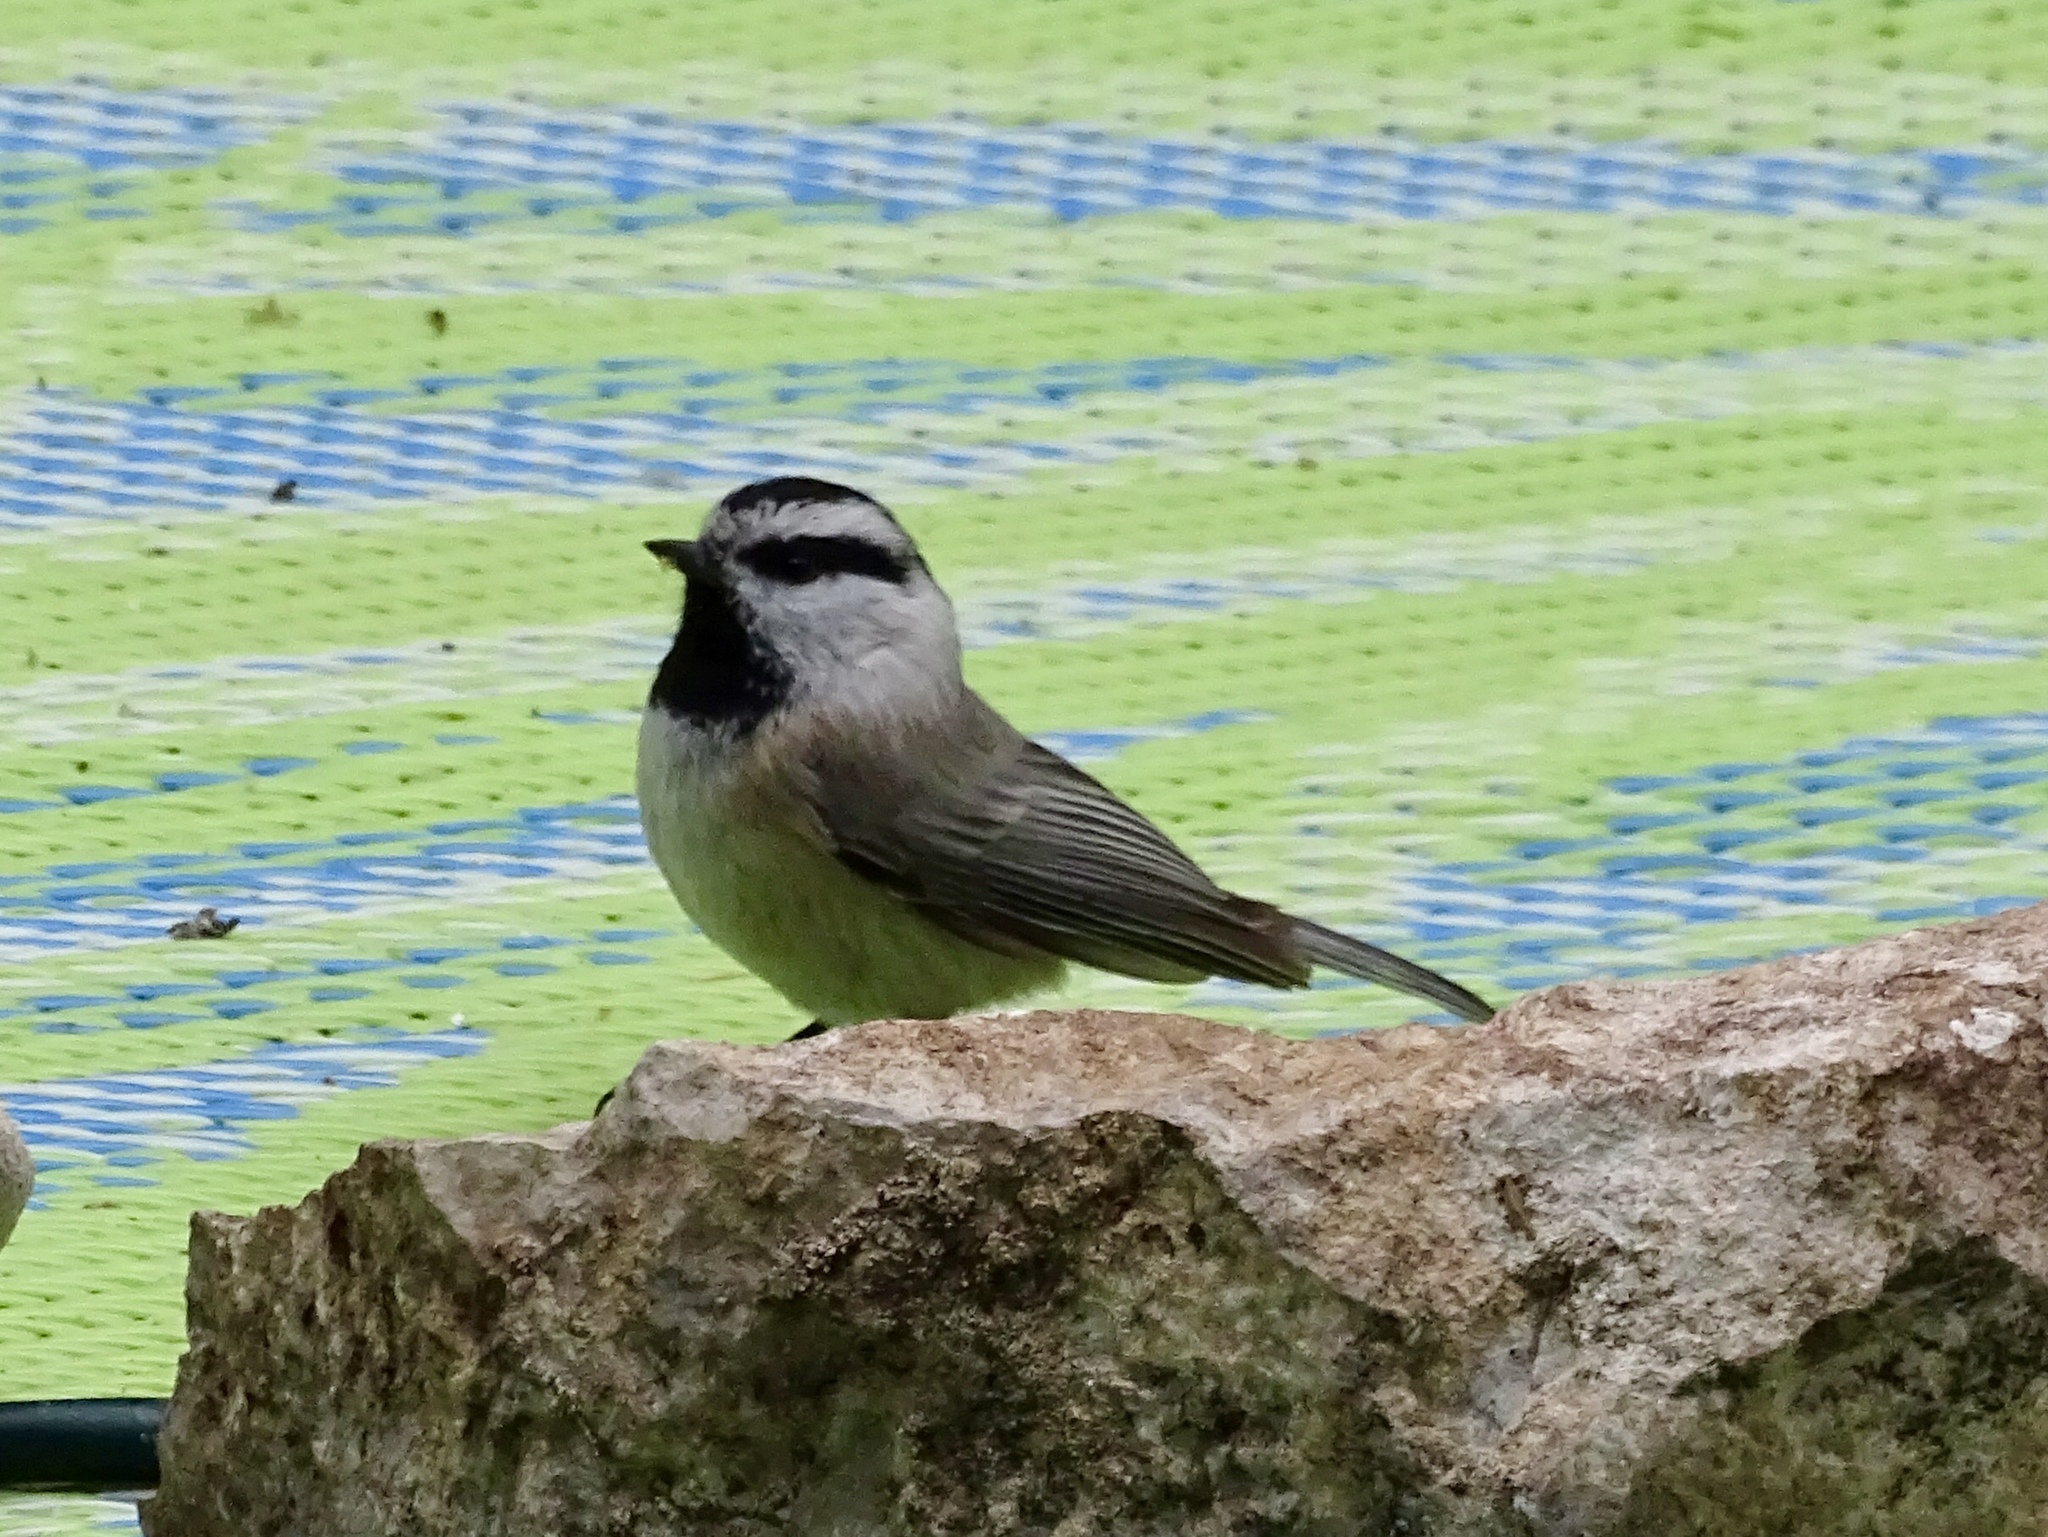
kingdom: Animalia
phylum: Chordata
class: Aves
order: Passeriformes
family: Paridae
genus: Poecile
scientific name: Poecile gambeli
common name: Mountain chickadee
